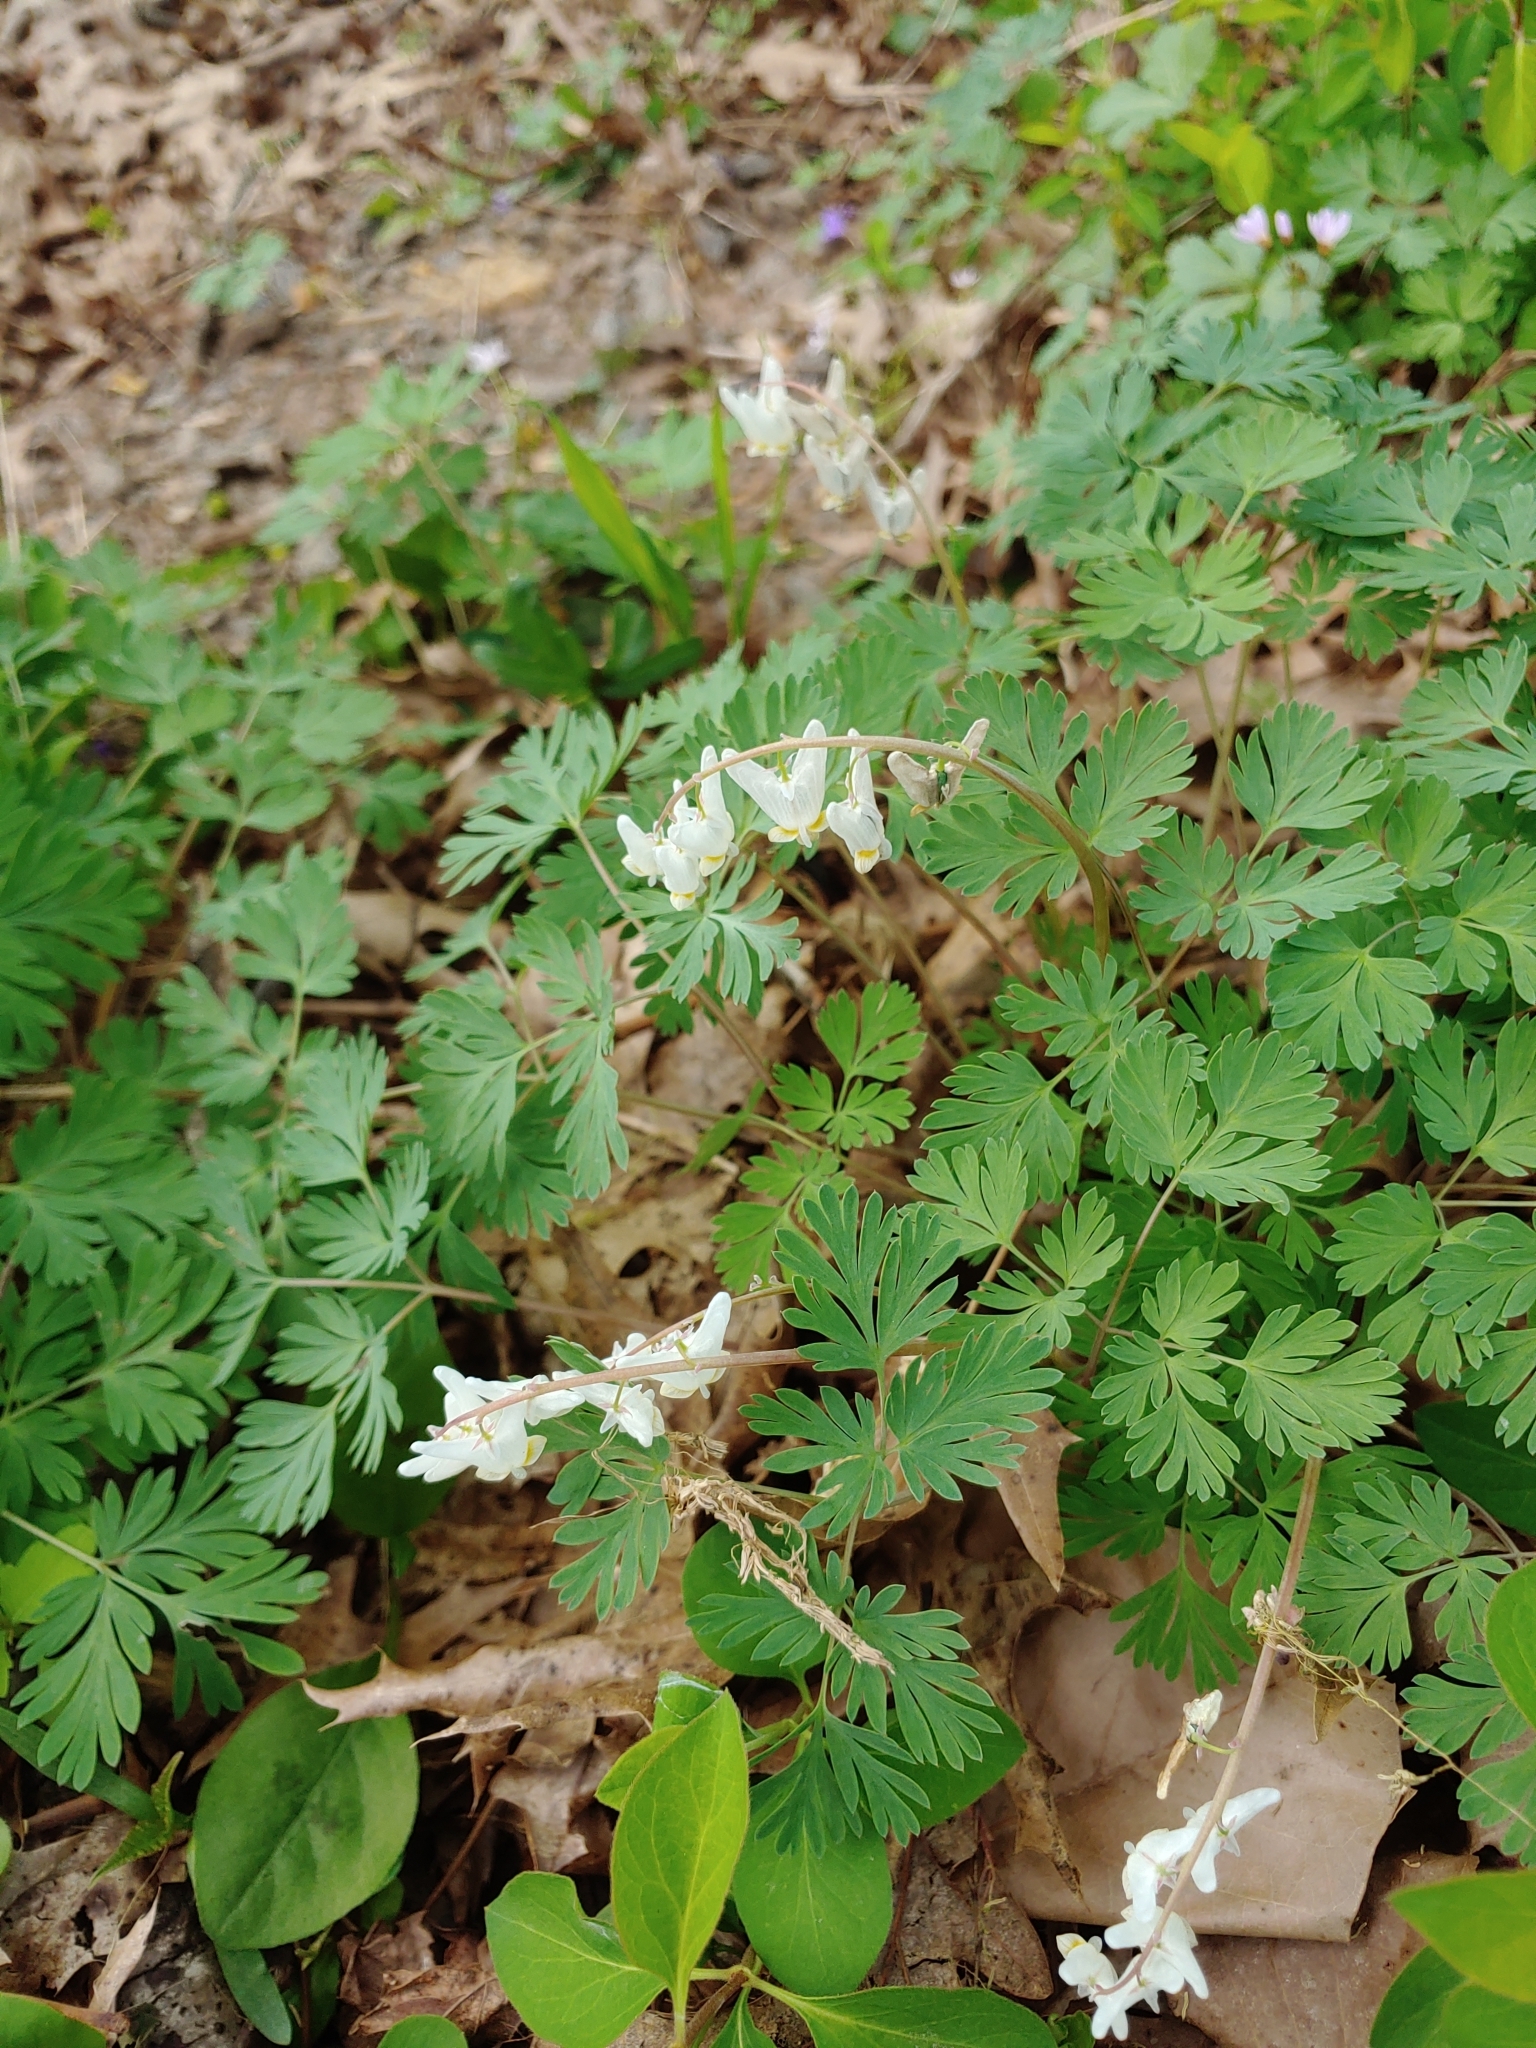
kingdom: Plantae
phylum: Tracheophyta
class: Magnoliopsida
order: Ranunculales
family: Papaveraceae
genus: Dicentra
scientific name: Dicentra cucullaria
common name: Dutchman's breeches
